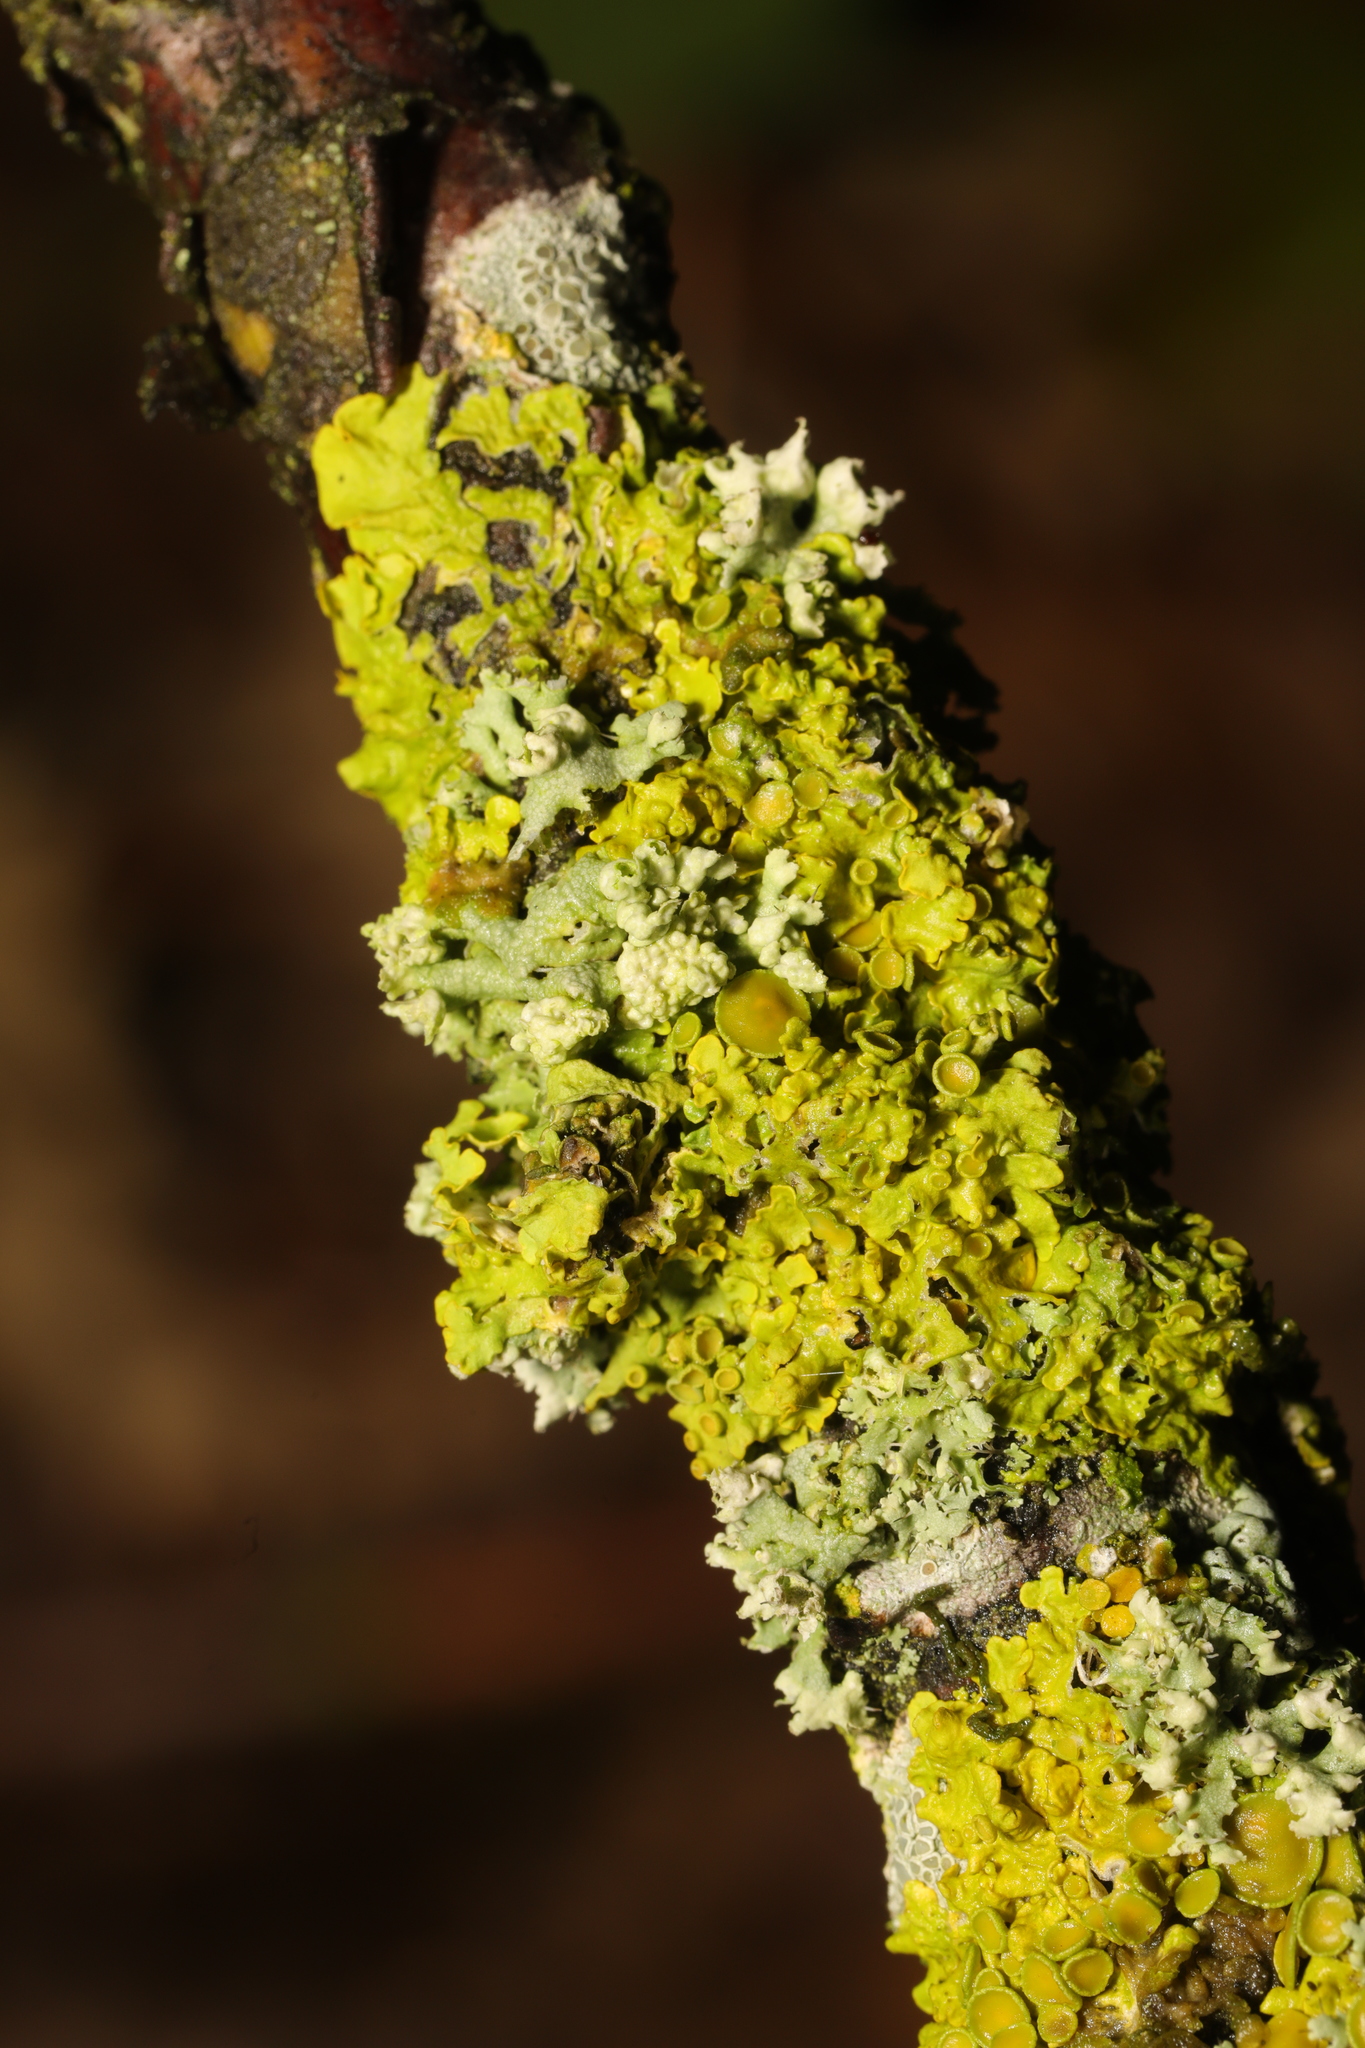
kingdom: Fungi
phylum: Ascomycota
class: Lecanoromycetes
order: Teloschistales
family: Teloschistaceae
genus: Xanthoria
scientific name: Xanthoria parietina
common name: Common orange lichen
